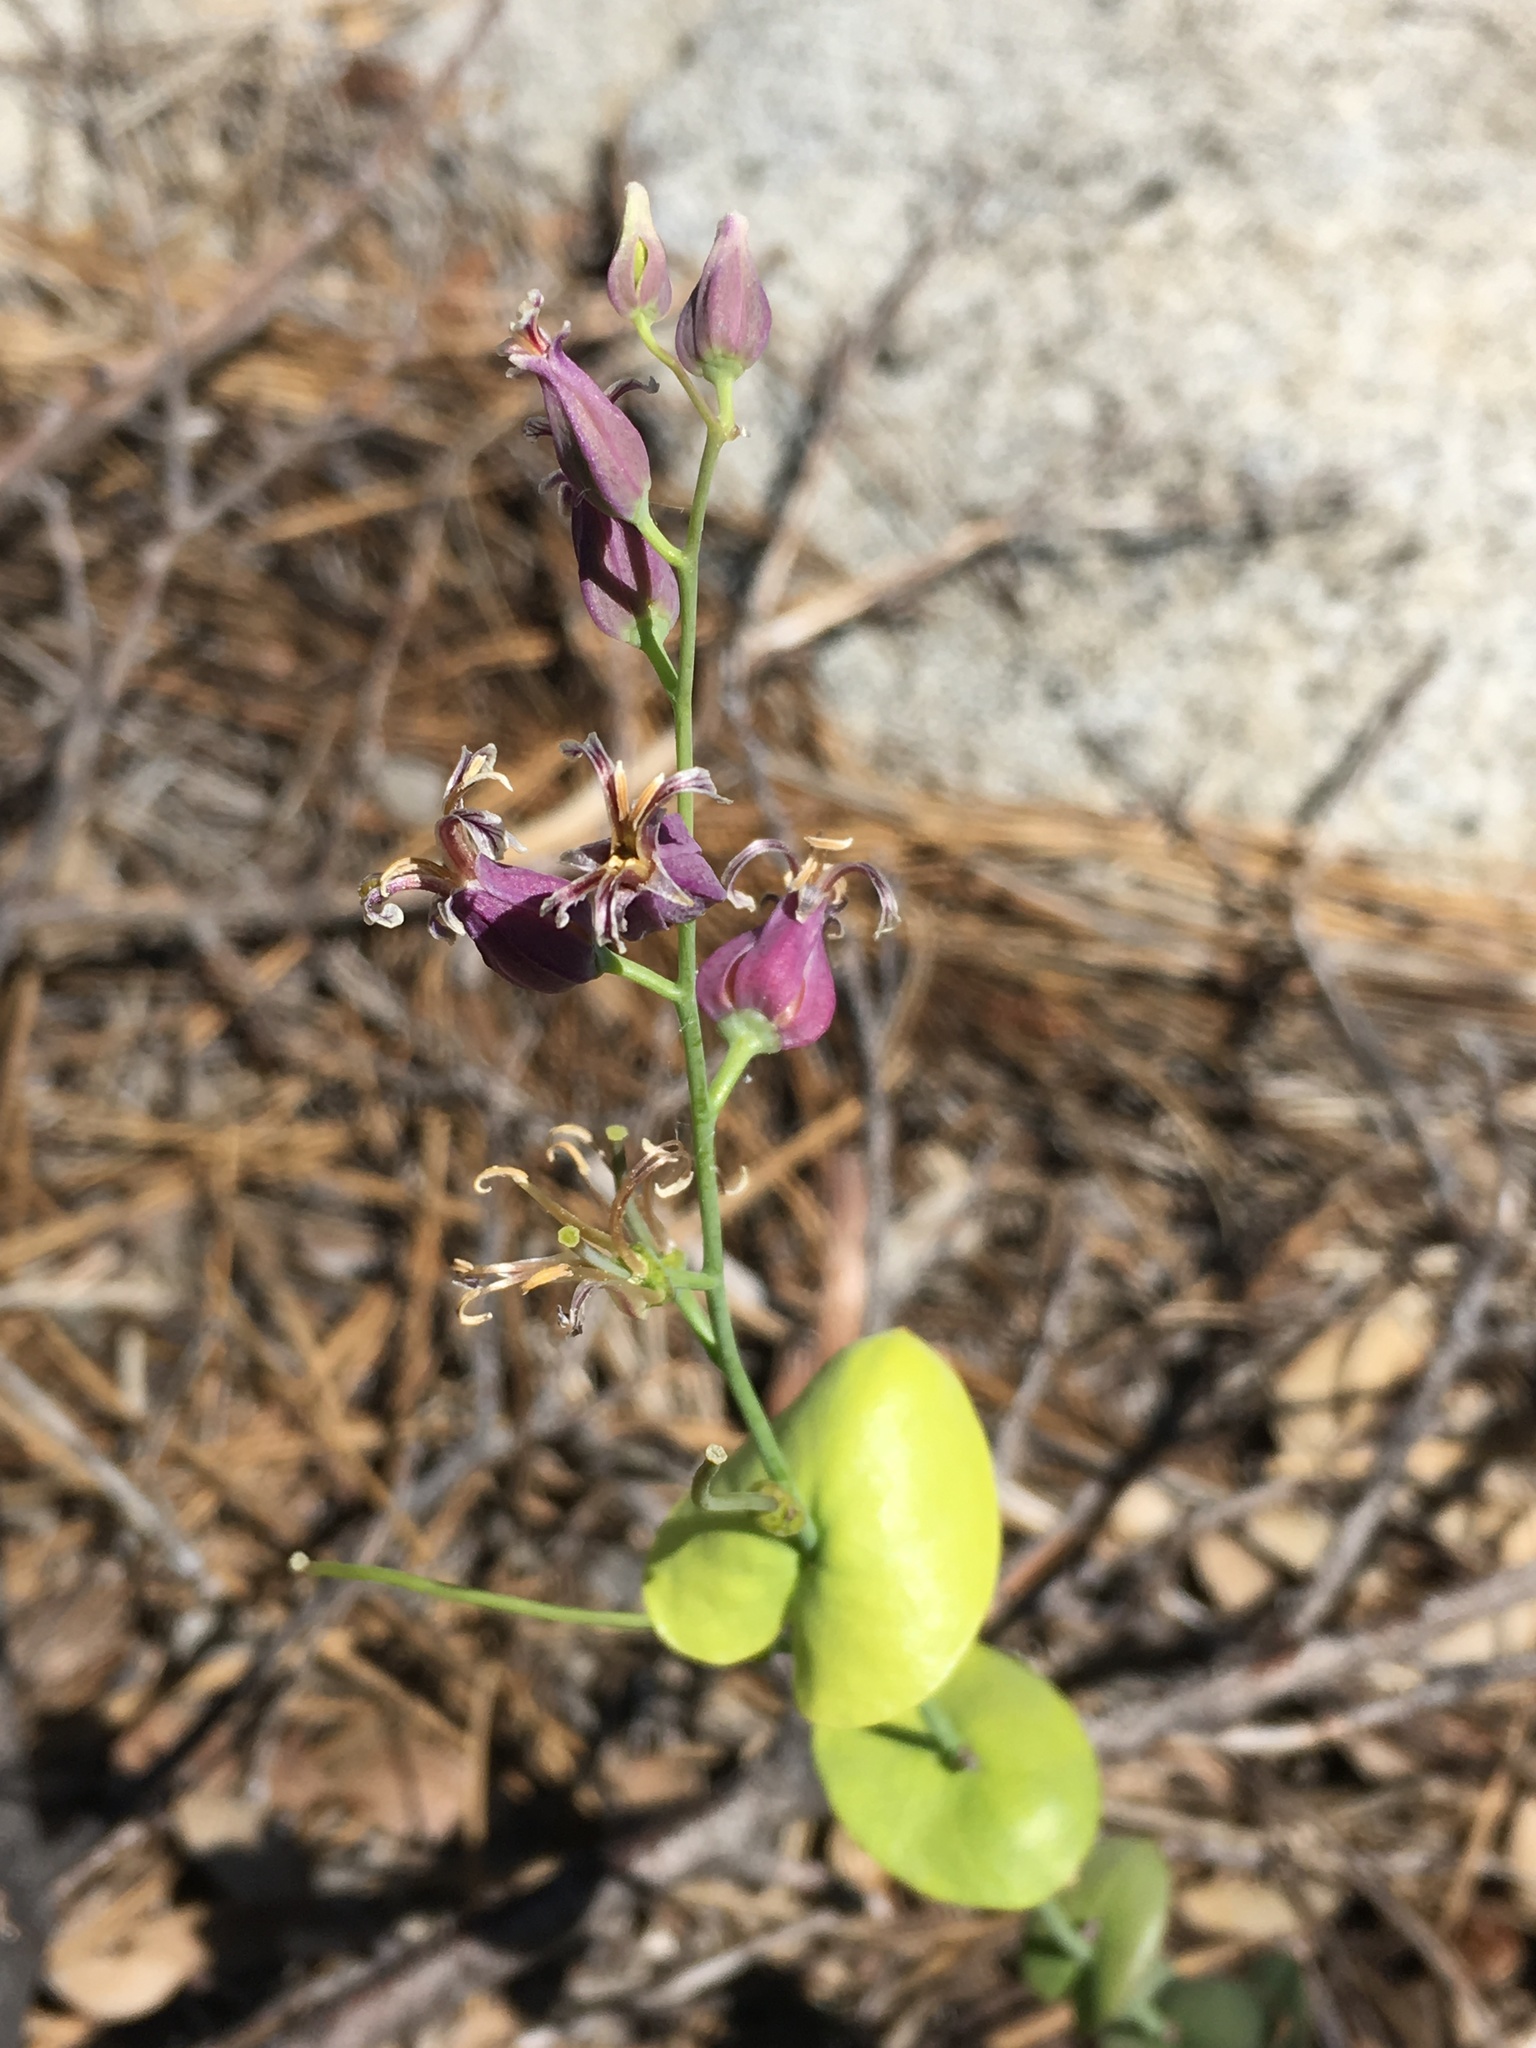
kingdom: Plantae
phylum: Tracheophyta
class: Magnoliopsida
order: Brassicales
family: Brassicaceae
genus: Streptanthus
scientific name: Streptanthus tortuosus
